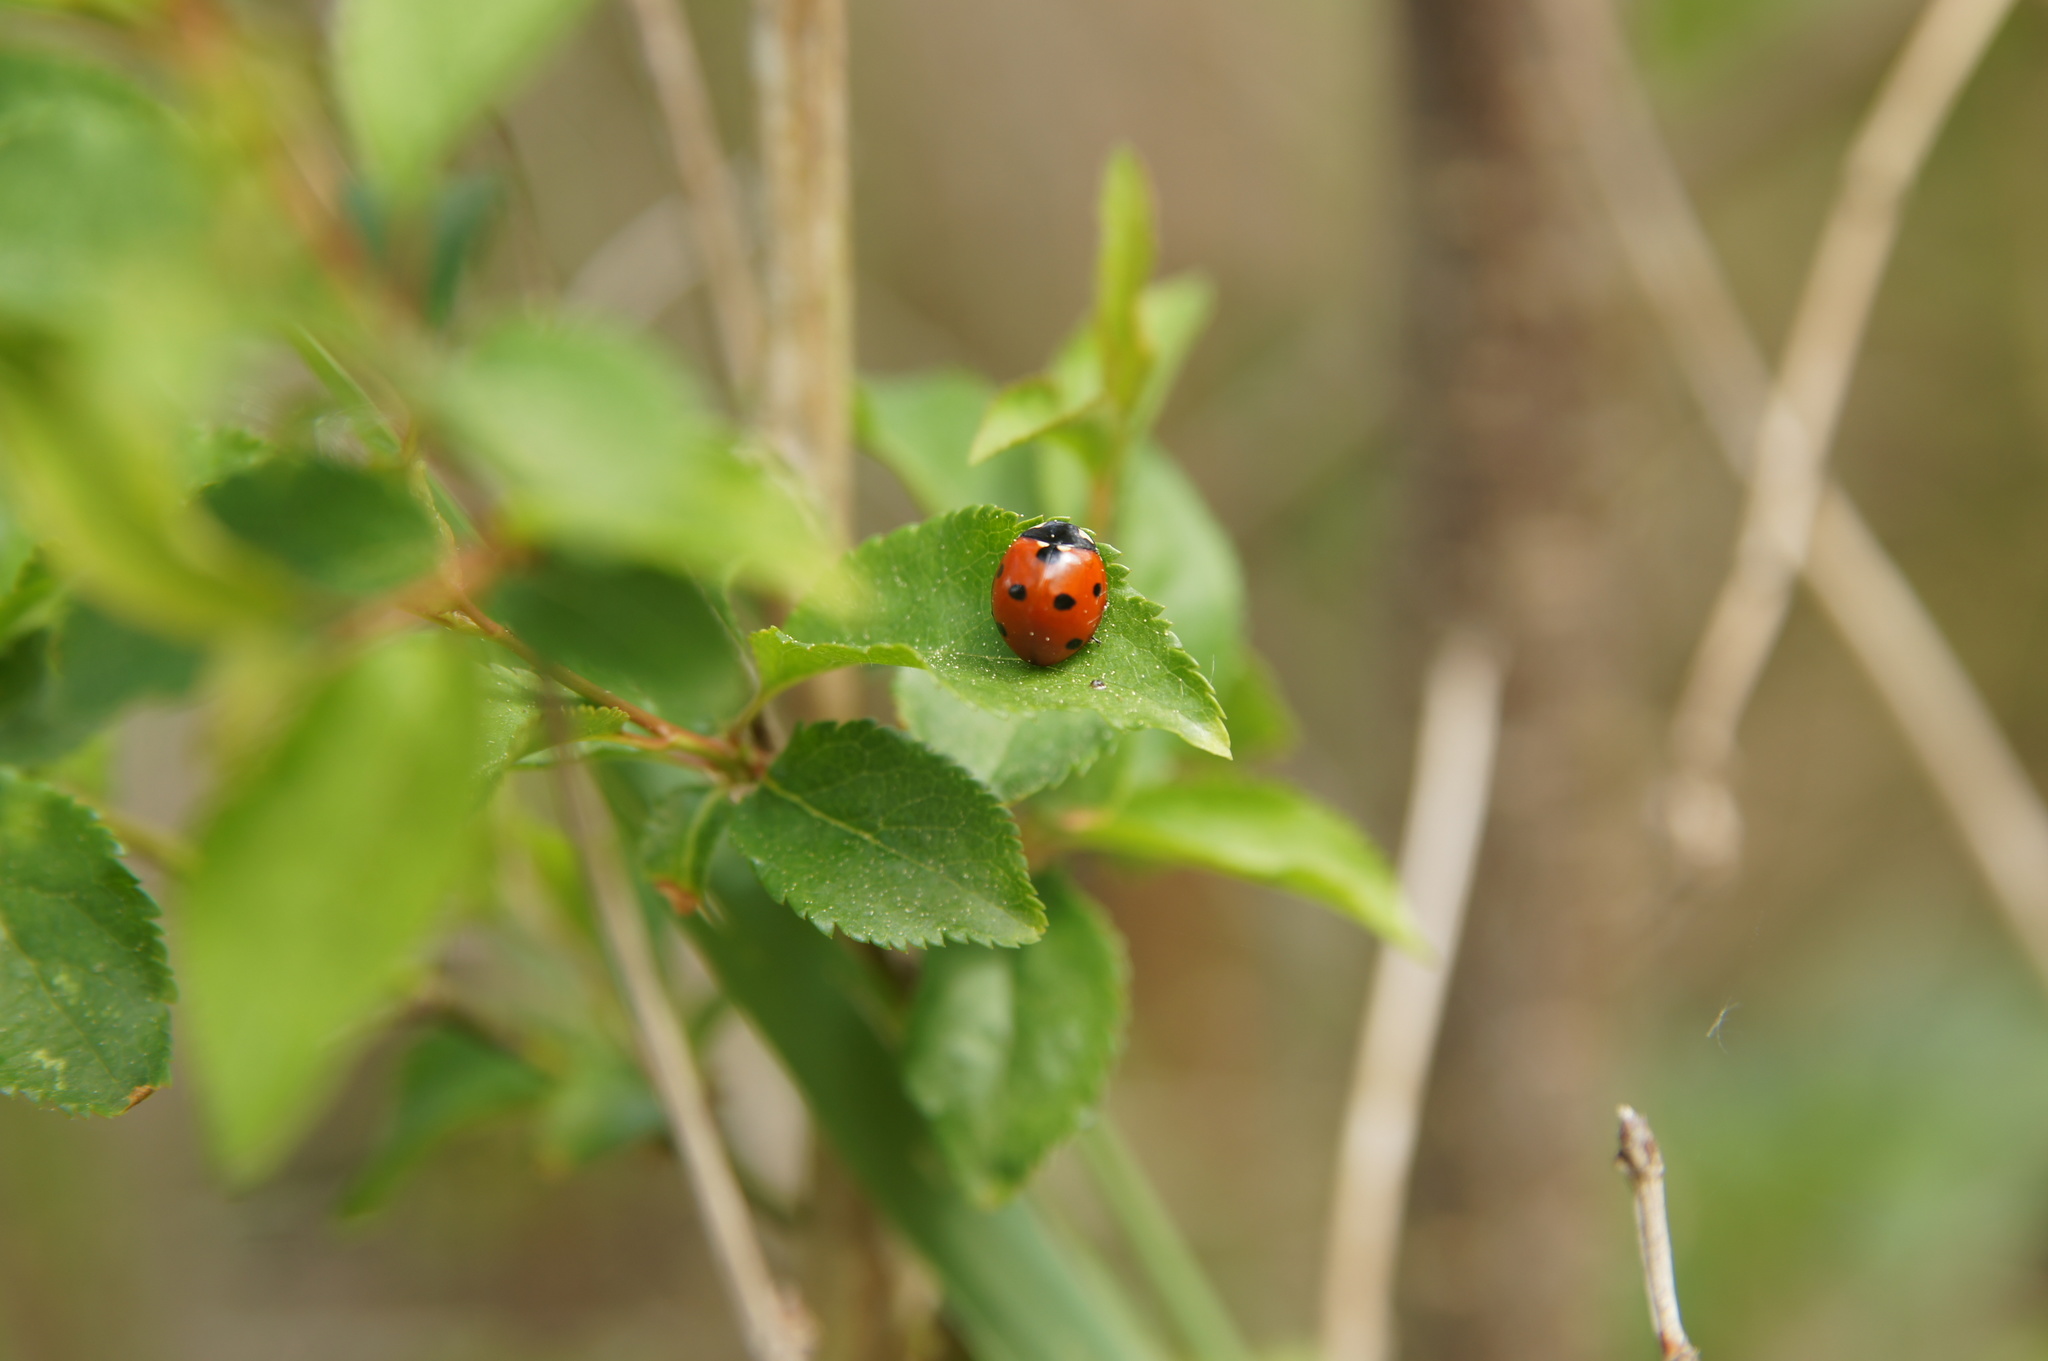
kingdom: Animalia
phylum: Arthropoda
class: Insecta
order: Coleoptera
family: Coccinellidae
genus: Coccinella
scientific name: Coccinella septempunctata
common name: Sevenspotted lady beetle
